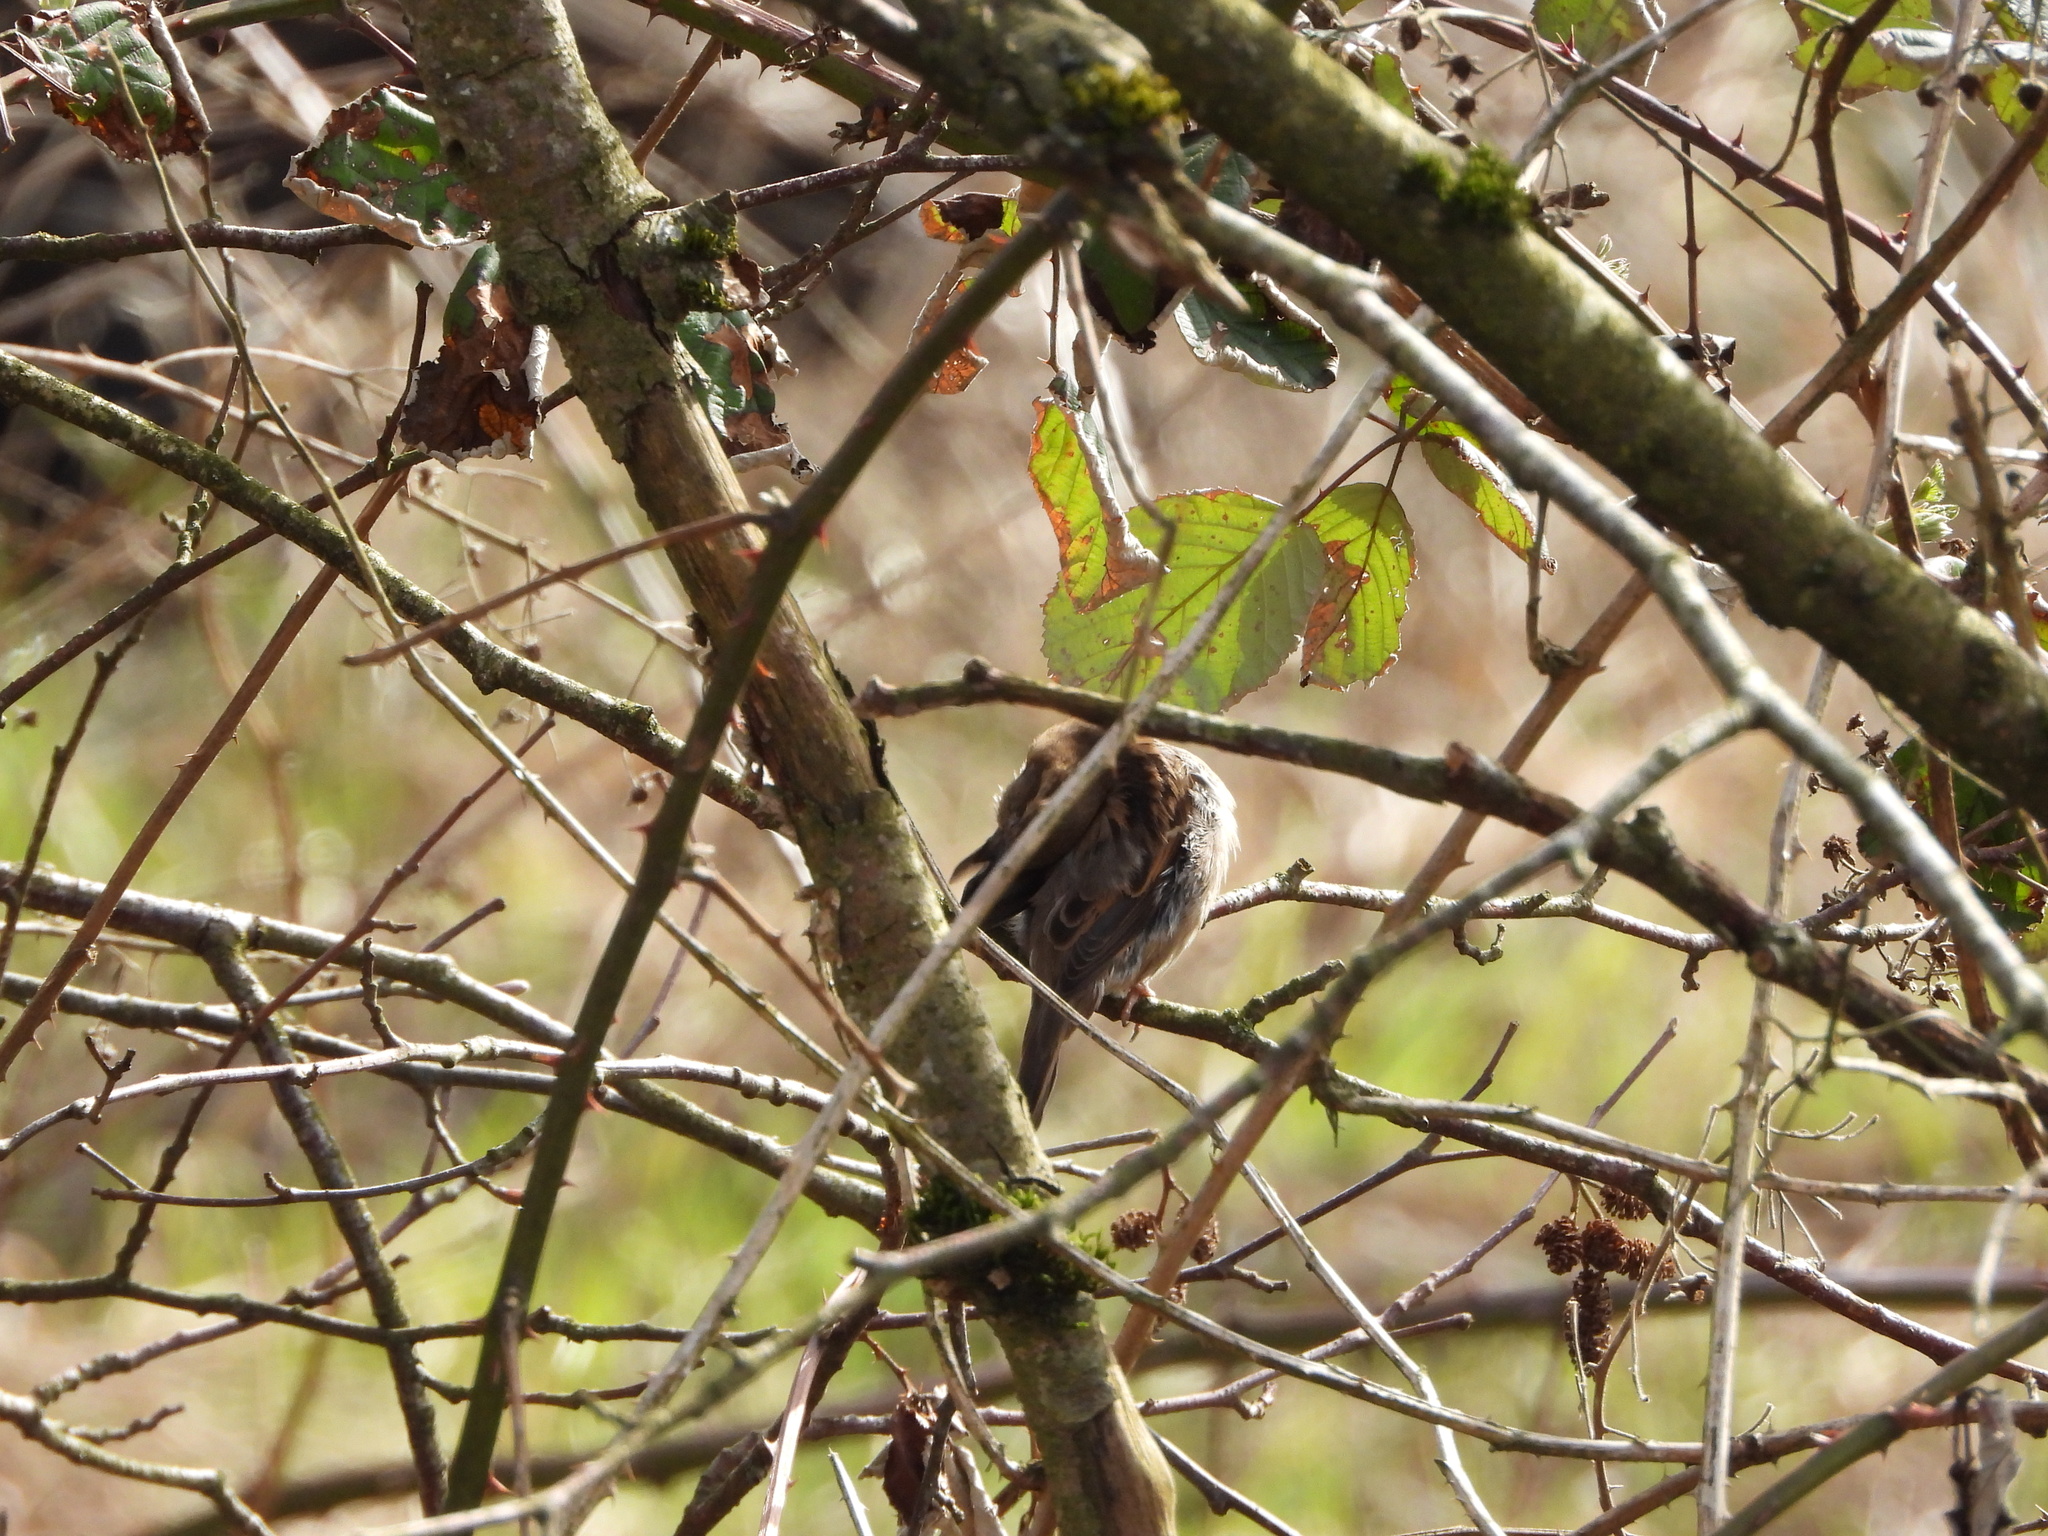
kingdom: Animalia
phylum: Chordata
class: Aves
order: Passeriformes
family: Passeridae
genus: Passer
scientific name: Passer domesticus
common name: House sparrow
